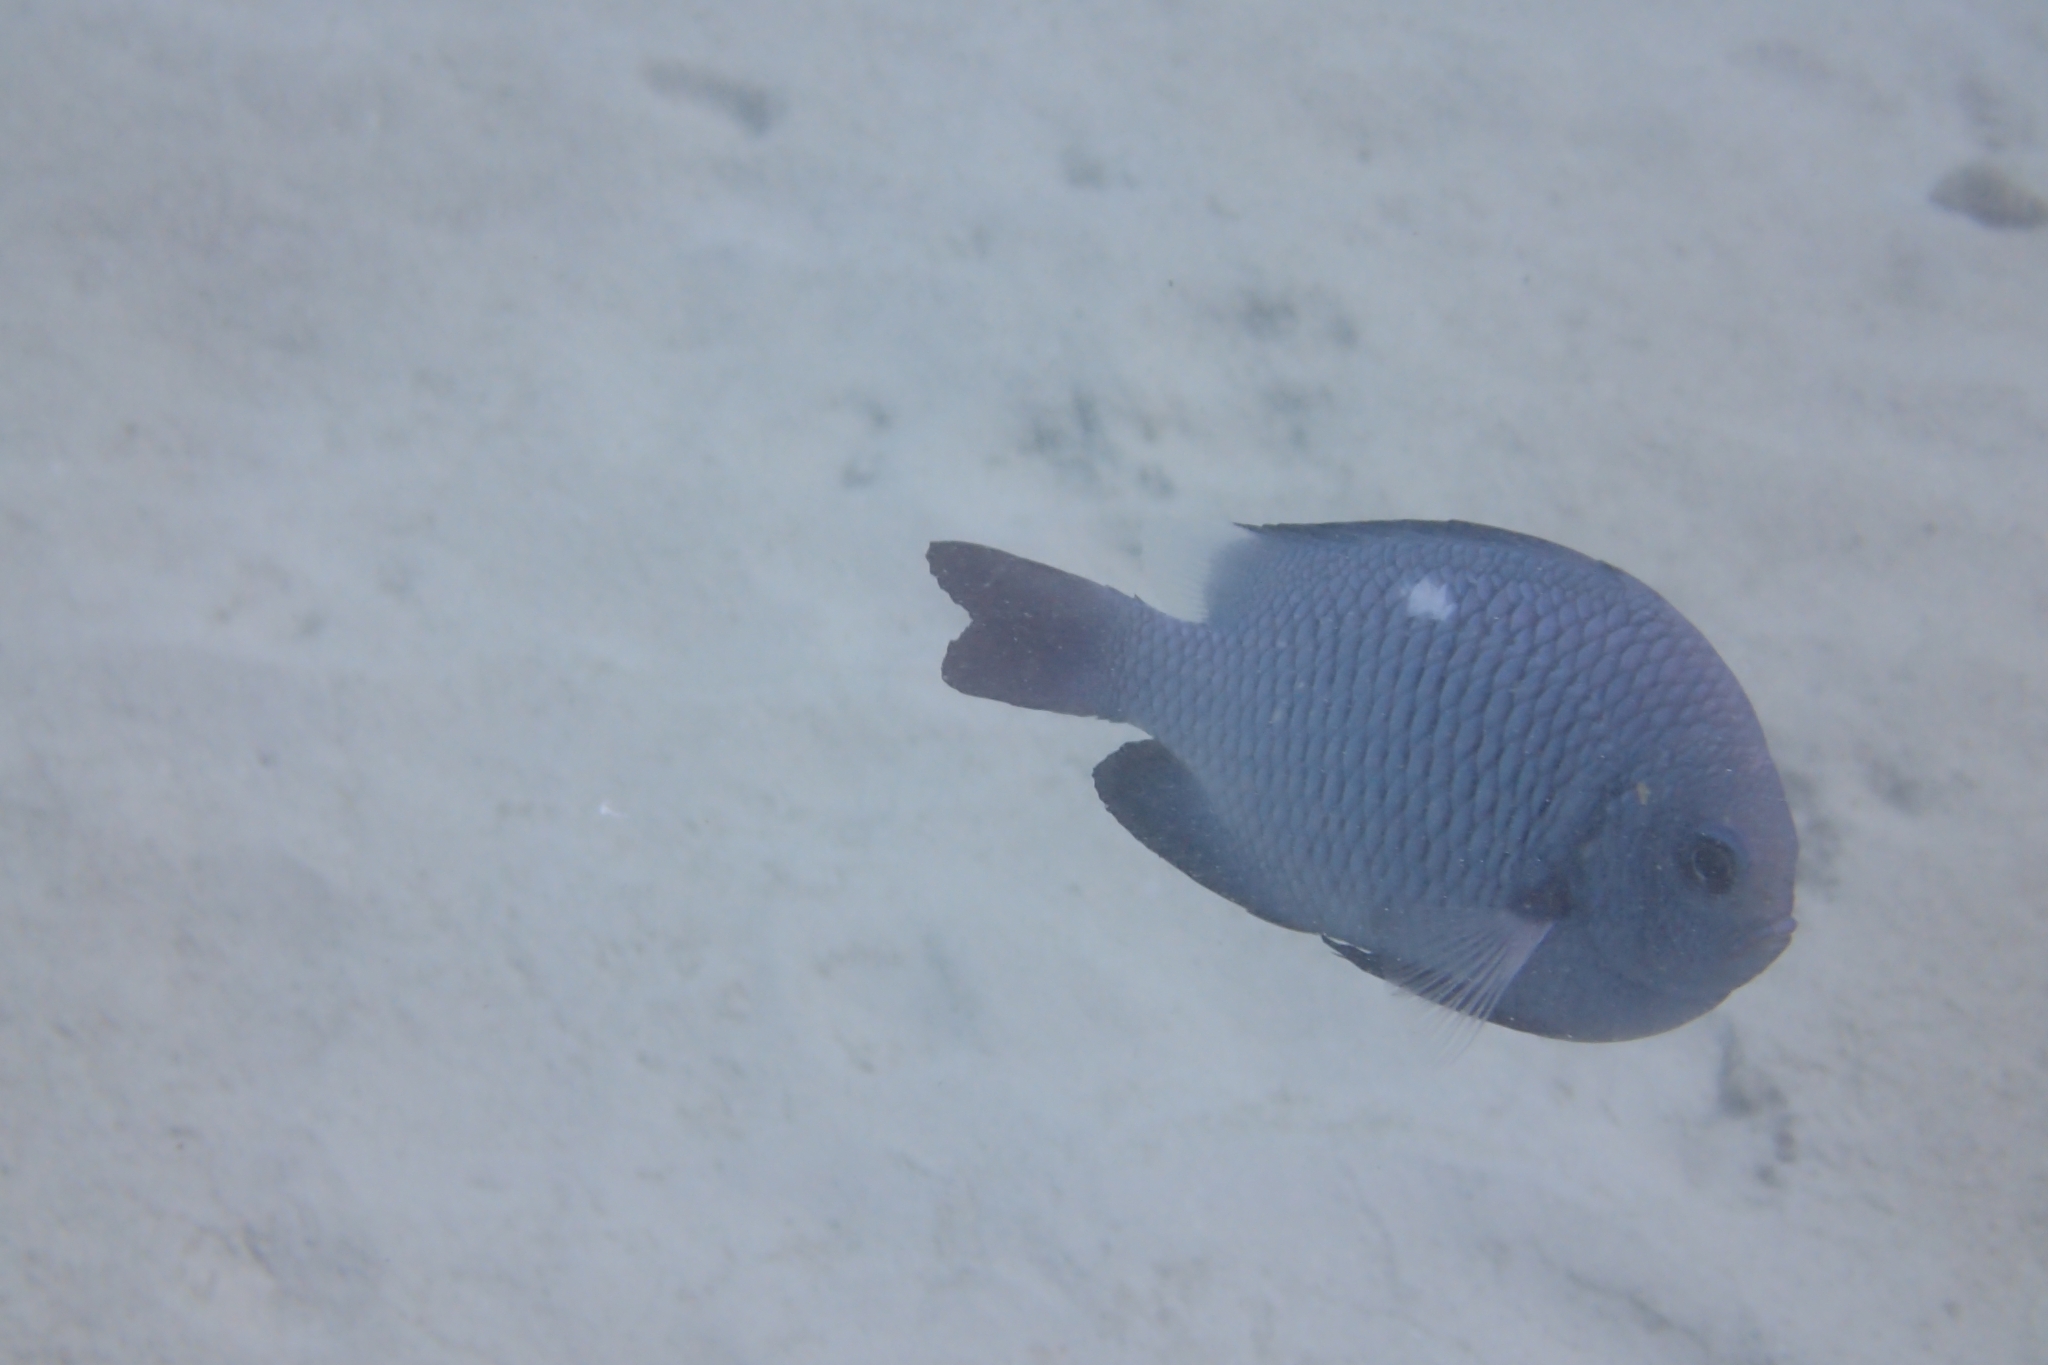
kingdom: Animalia
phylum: Chordata
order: Perciformes
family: Pomacentridae
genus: Dascyllus
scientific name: Dascyllus trimaculatus
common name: Threespot dascyllus
